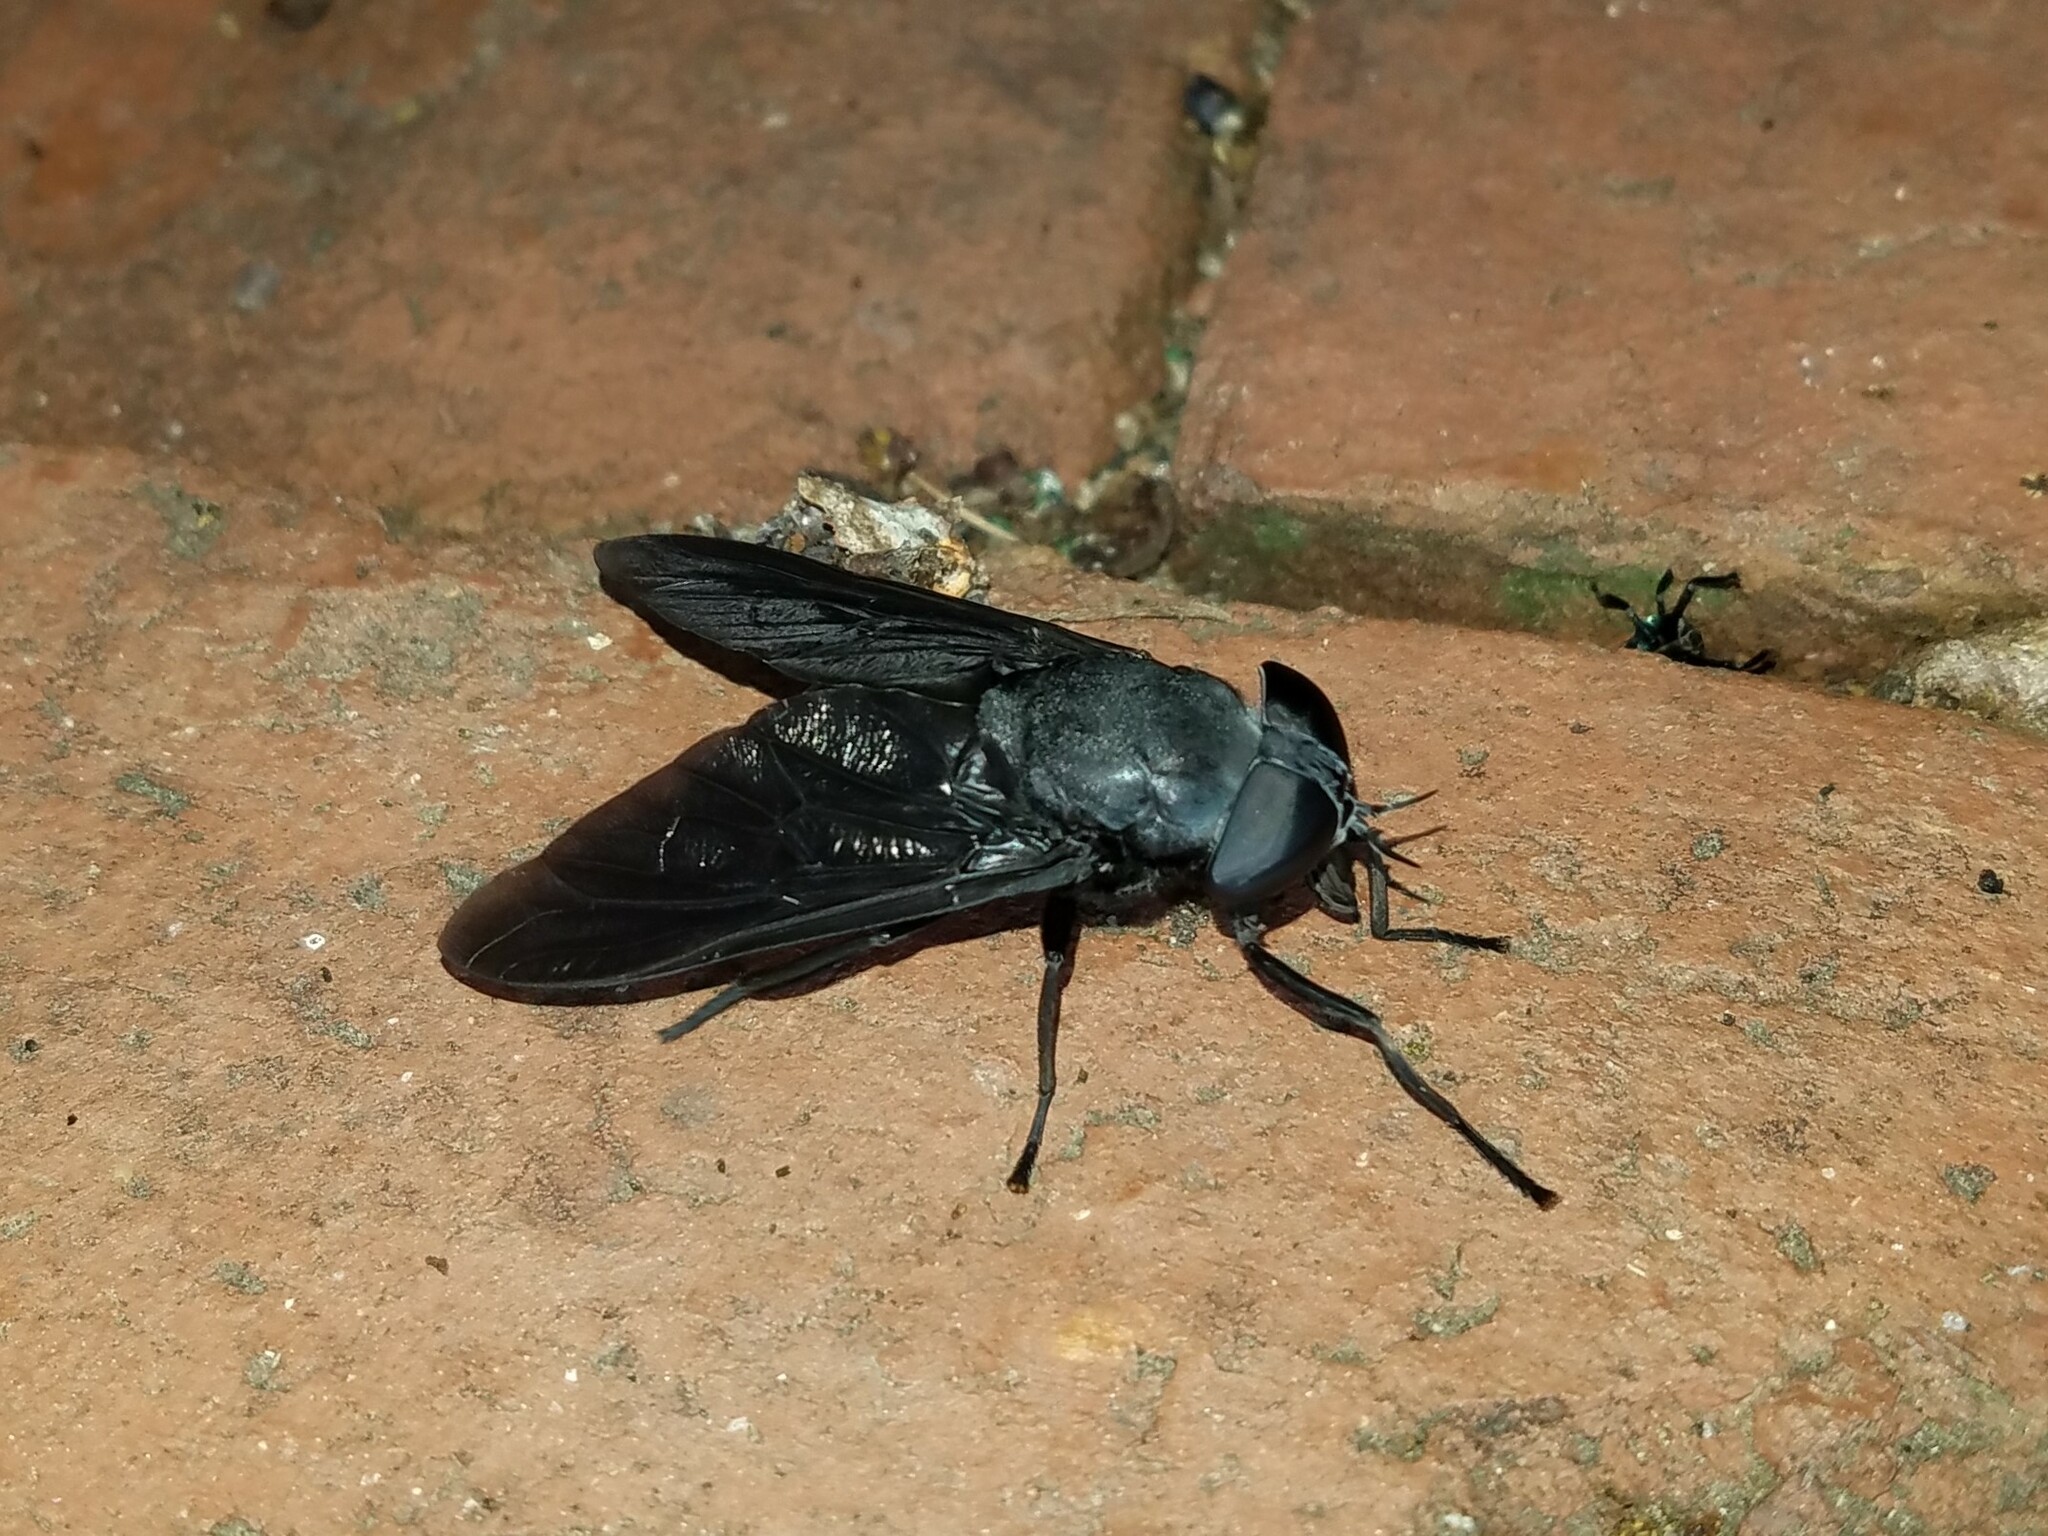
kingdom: Animalia
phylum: Arthropoda
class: Insecta
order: Diptera
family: Tabanidae
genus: Tabanus
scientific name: Tabanus atratus
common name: Black horse fly
